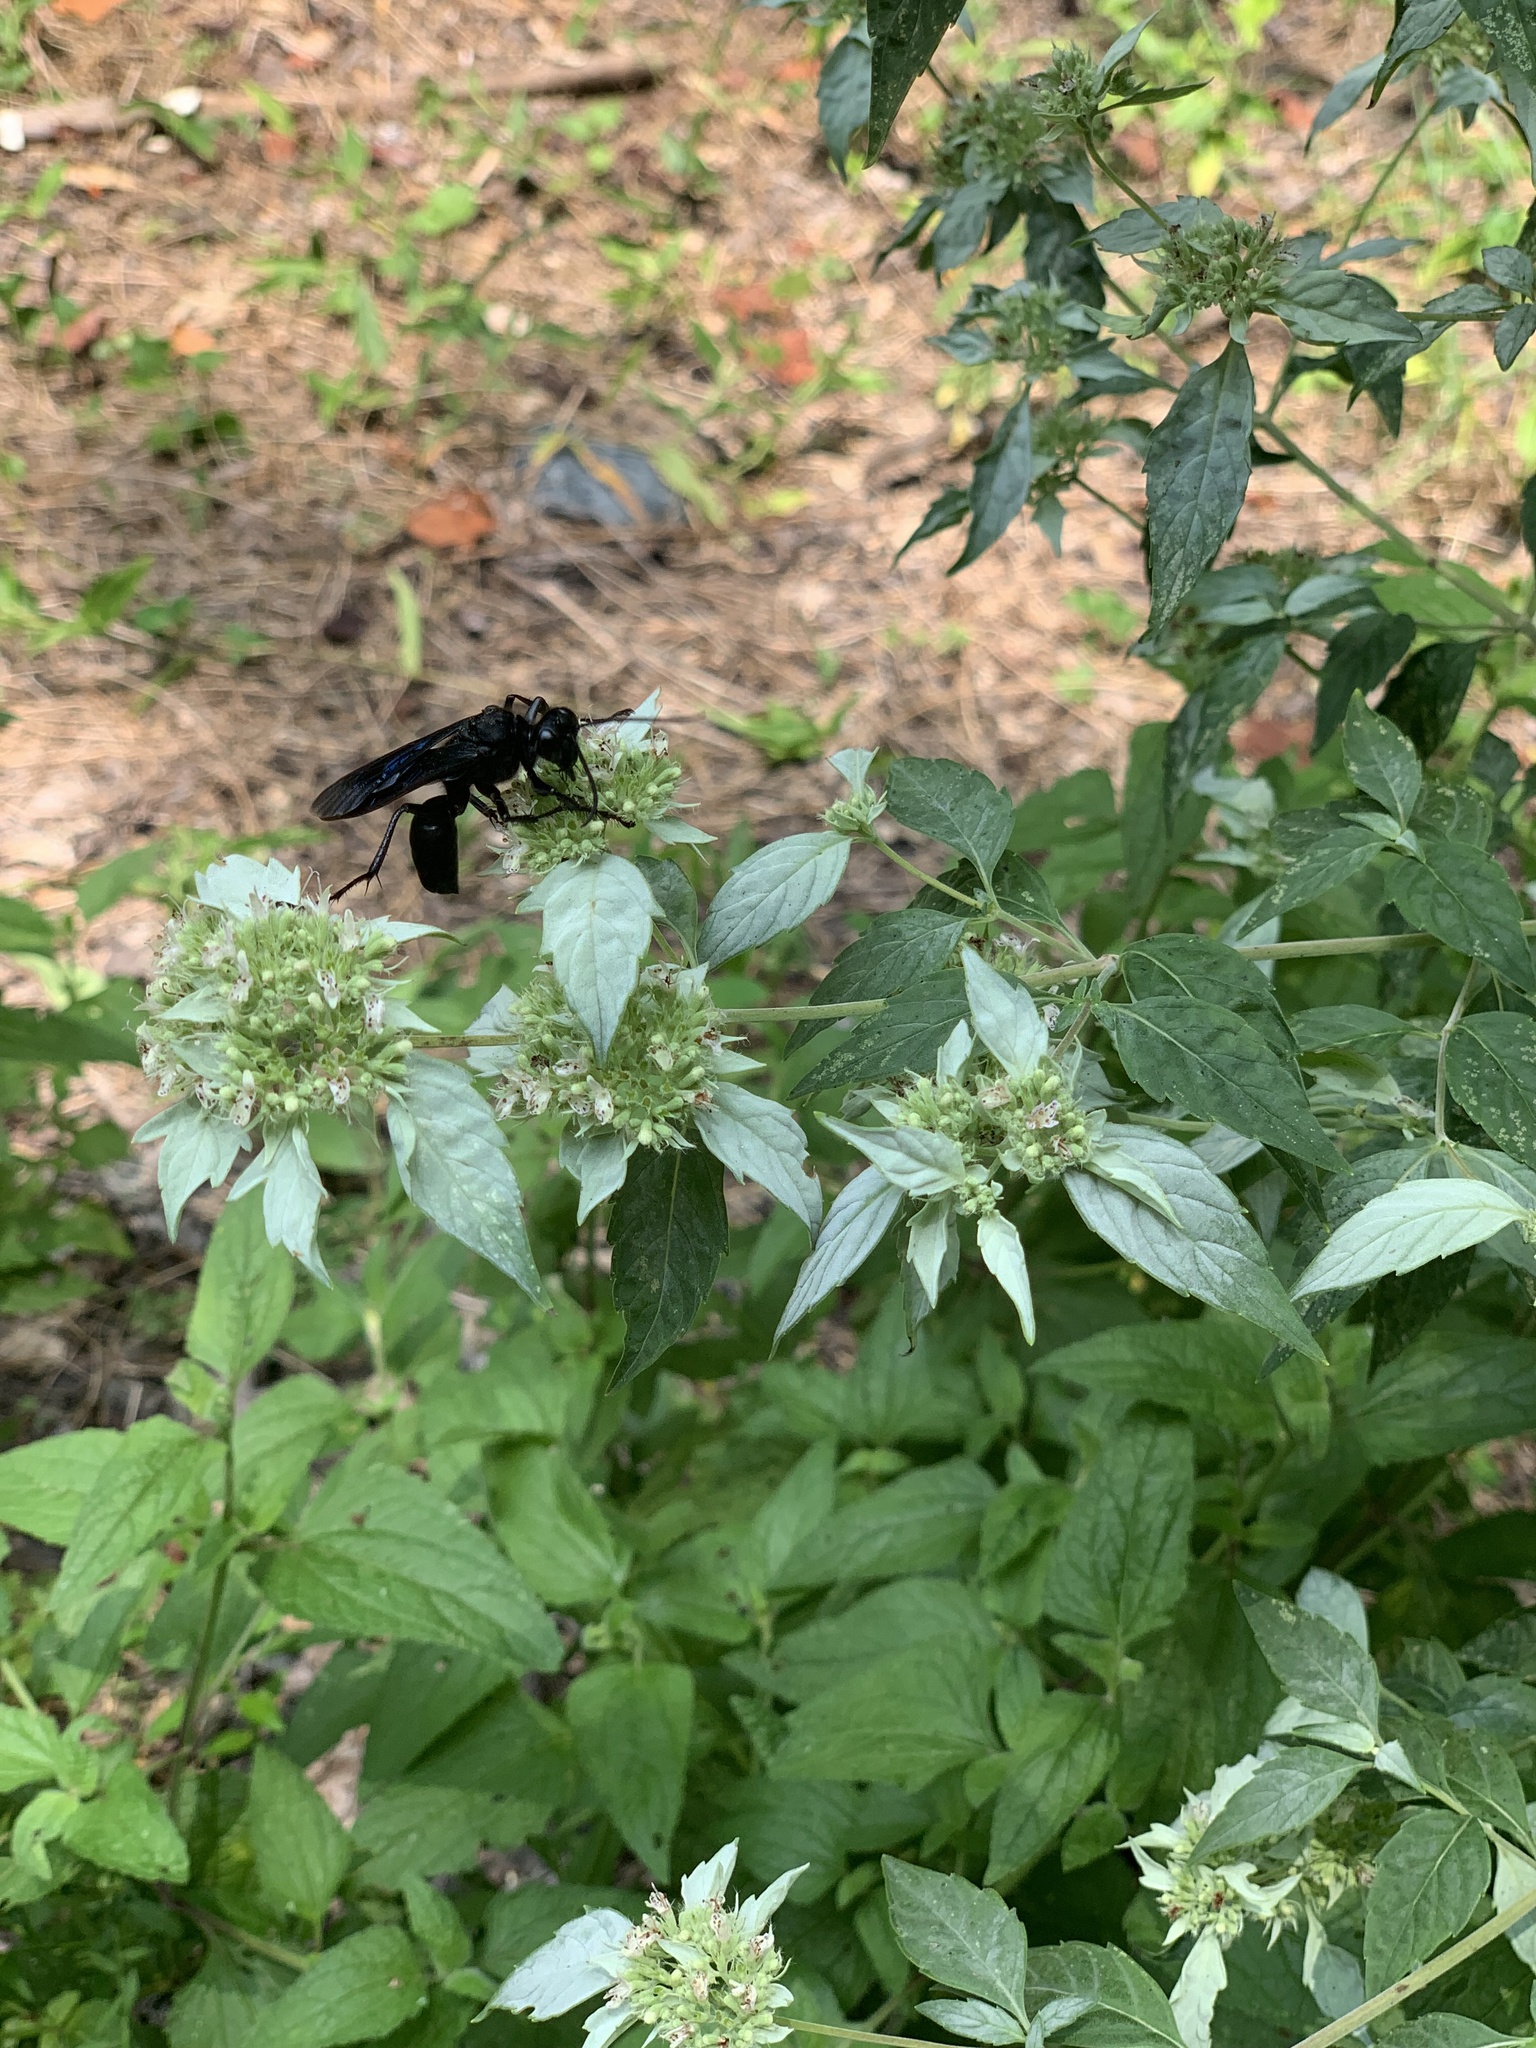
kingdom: Animalia
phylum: Arthropoda
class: Insecta
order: Hymenoptera
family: Sphecidae
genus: Sphex
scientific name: Sphex pensylvanicus
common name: Great black digger wasp
